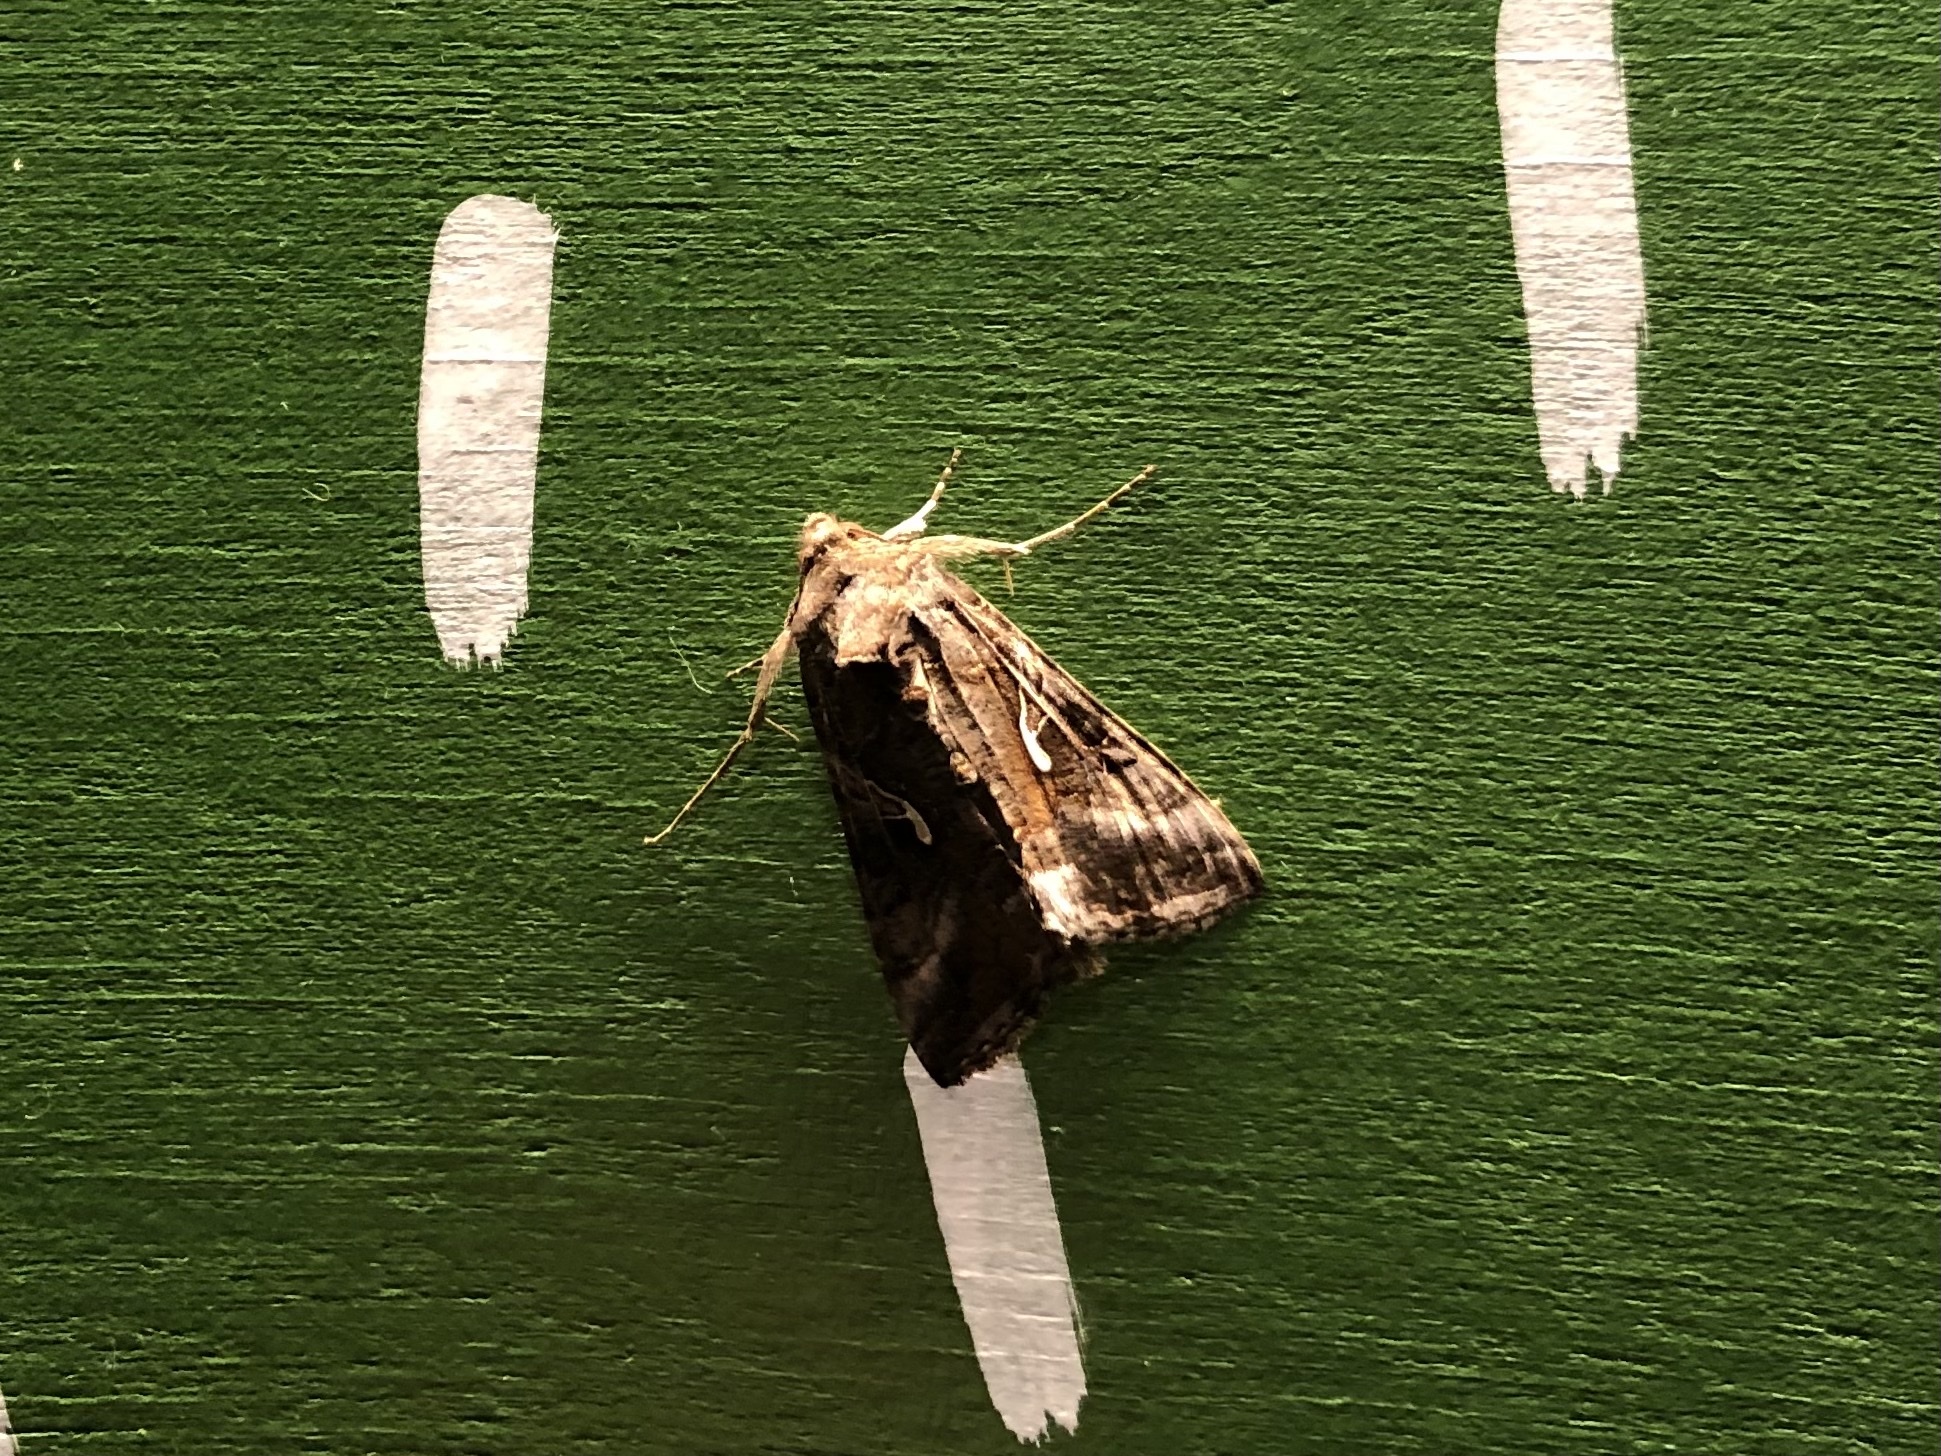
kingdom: Animalia
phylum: Arthropoda
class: Insecta
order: Lepidoptera
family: Noctuidae
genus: Autographa
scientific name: Autographa gamma
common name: Silver y
